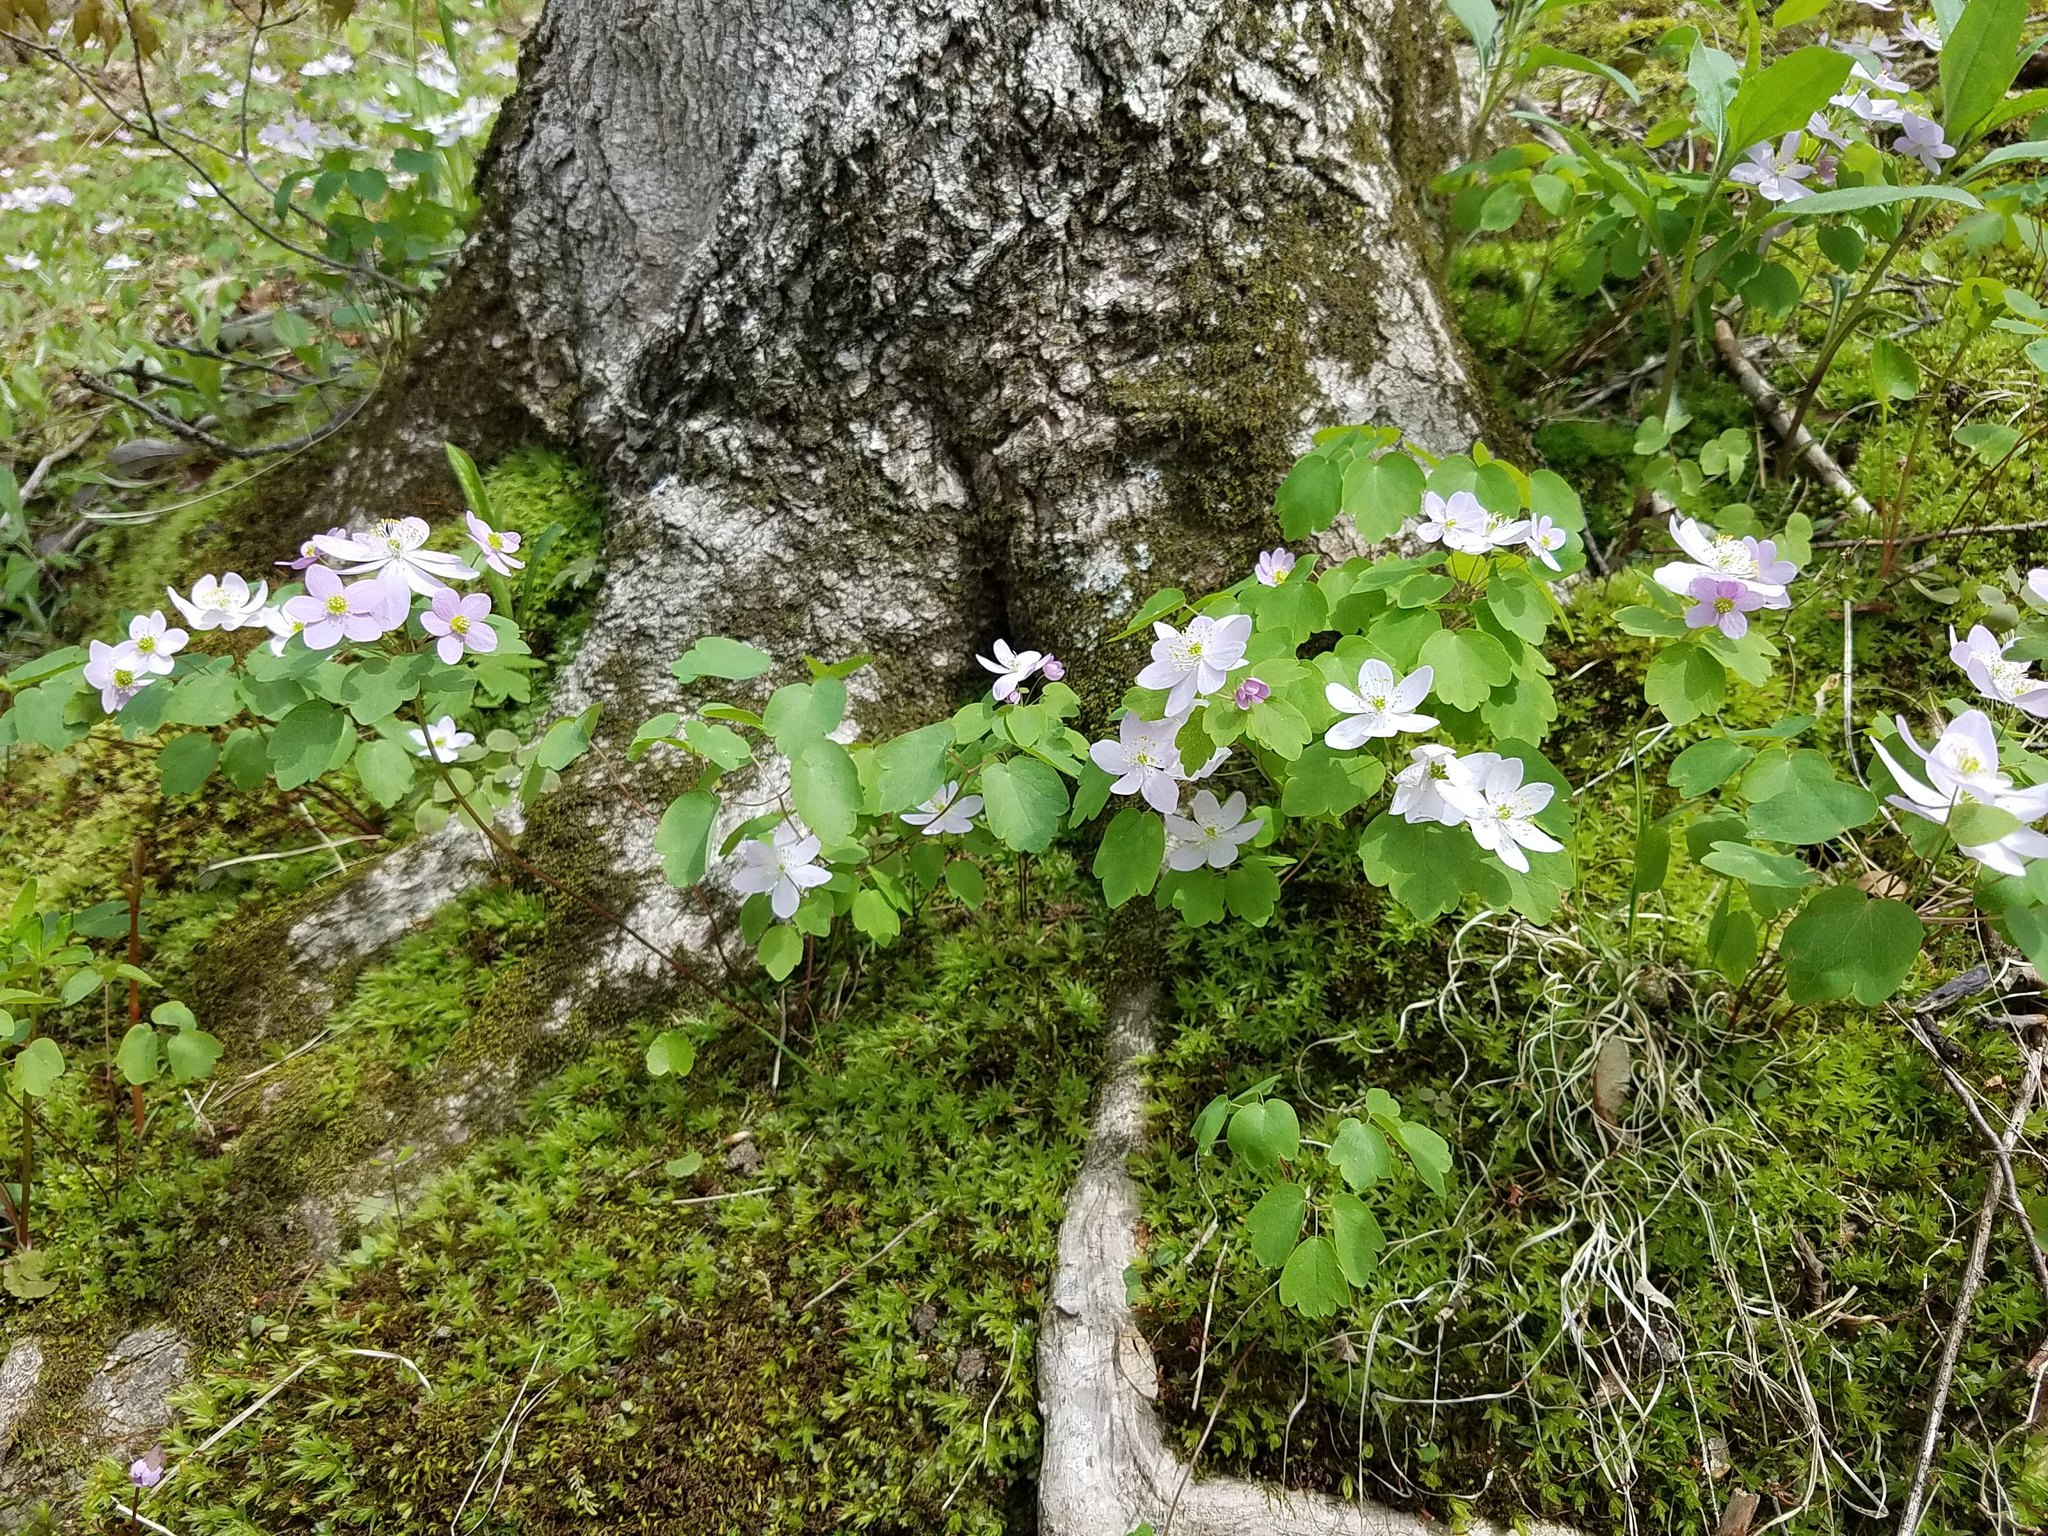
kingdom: Plantae
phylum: Tracheophyta
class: Magnoliopsida
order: Ranunculales
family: Ranunculaceae
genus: Thalictrum
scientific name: Thalictrum thalictroides
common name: Rue-anemone
